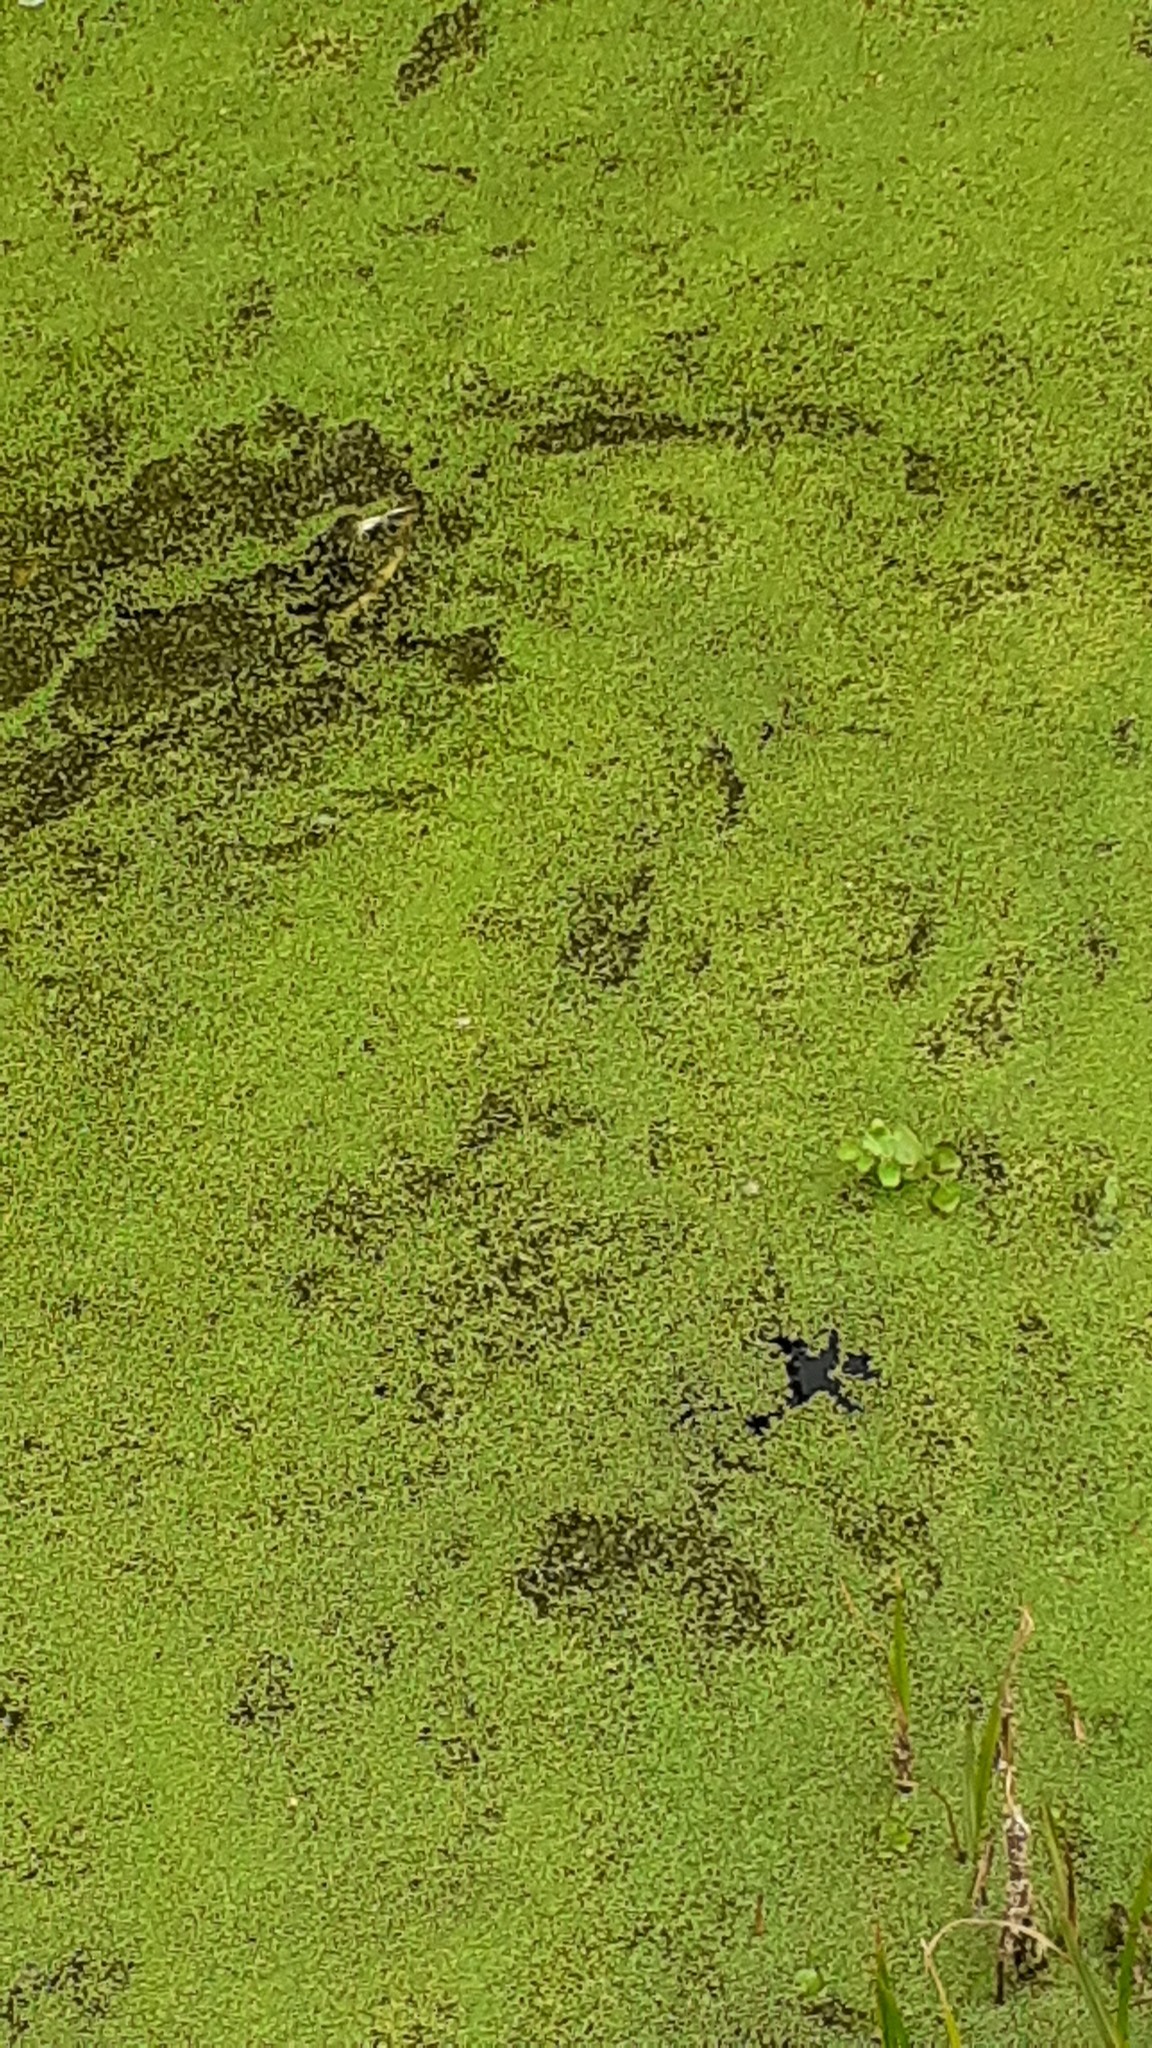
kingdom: Plantae
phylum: Tracheophyta
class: Liliopsida
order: Alismatales
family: Araceae
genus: Lemna
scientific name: Lemna minuta
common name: Least duckweed
